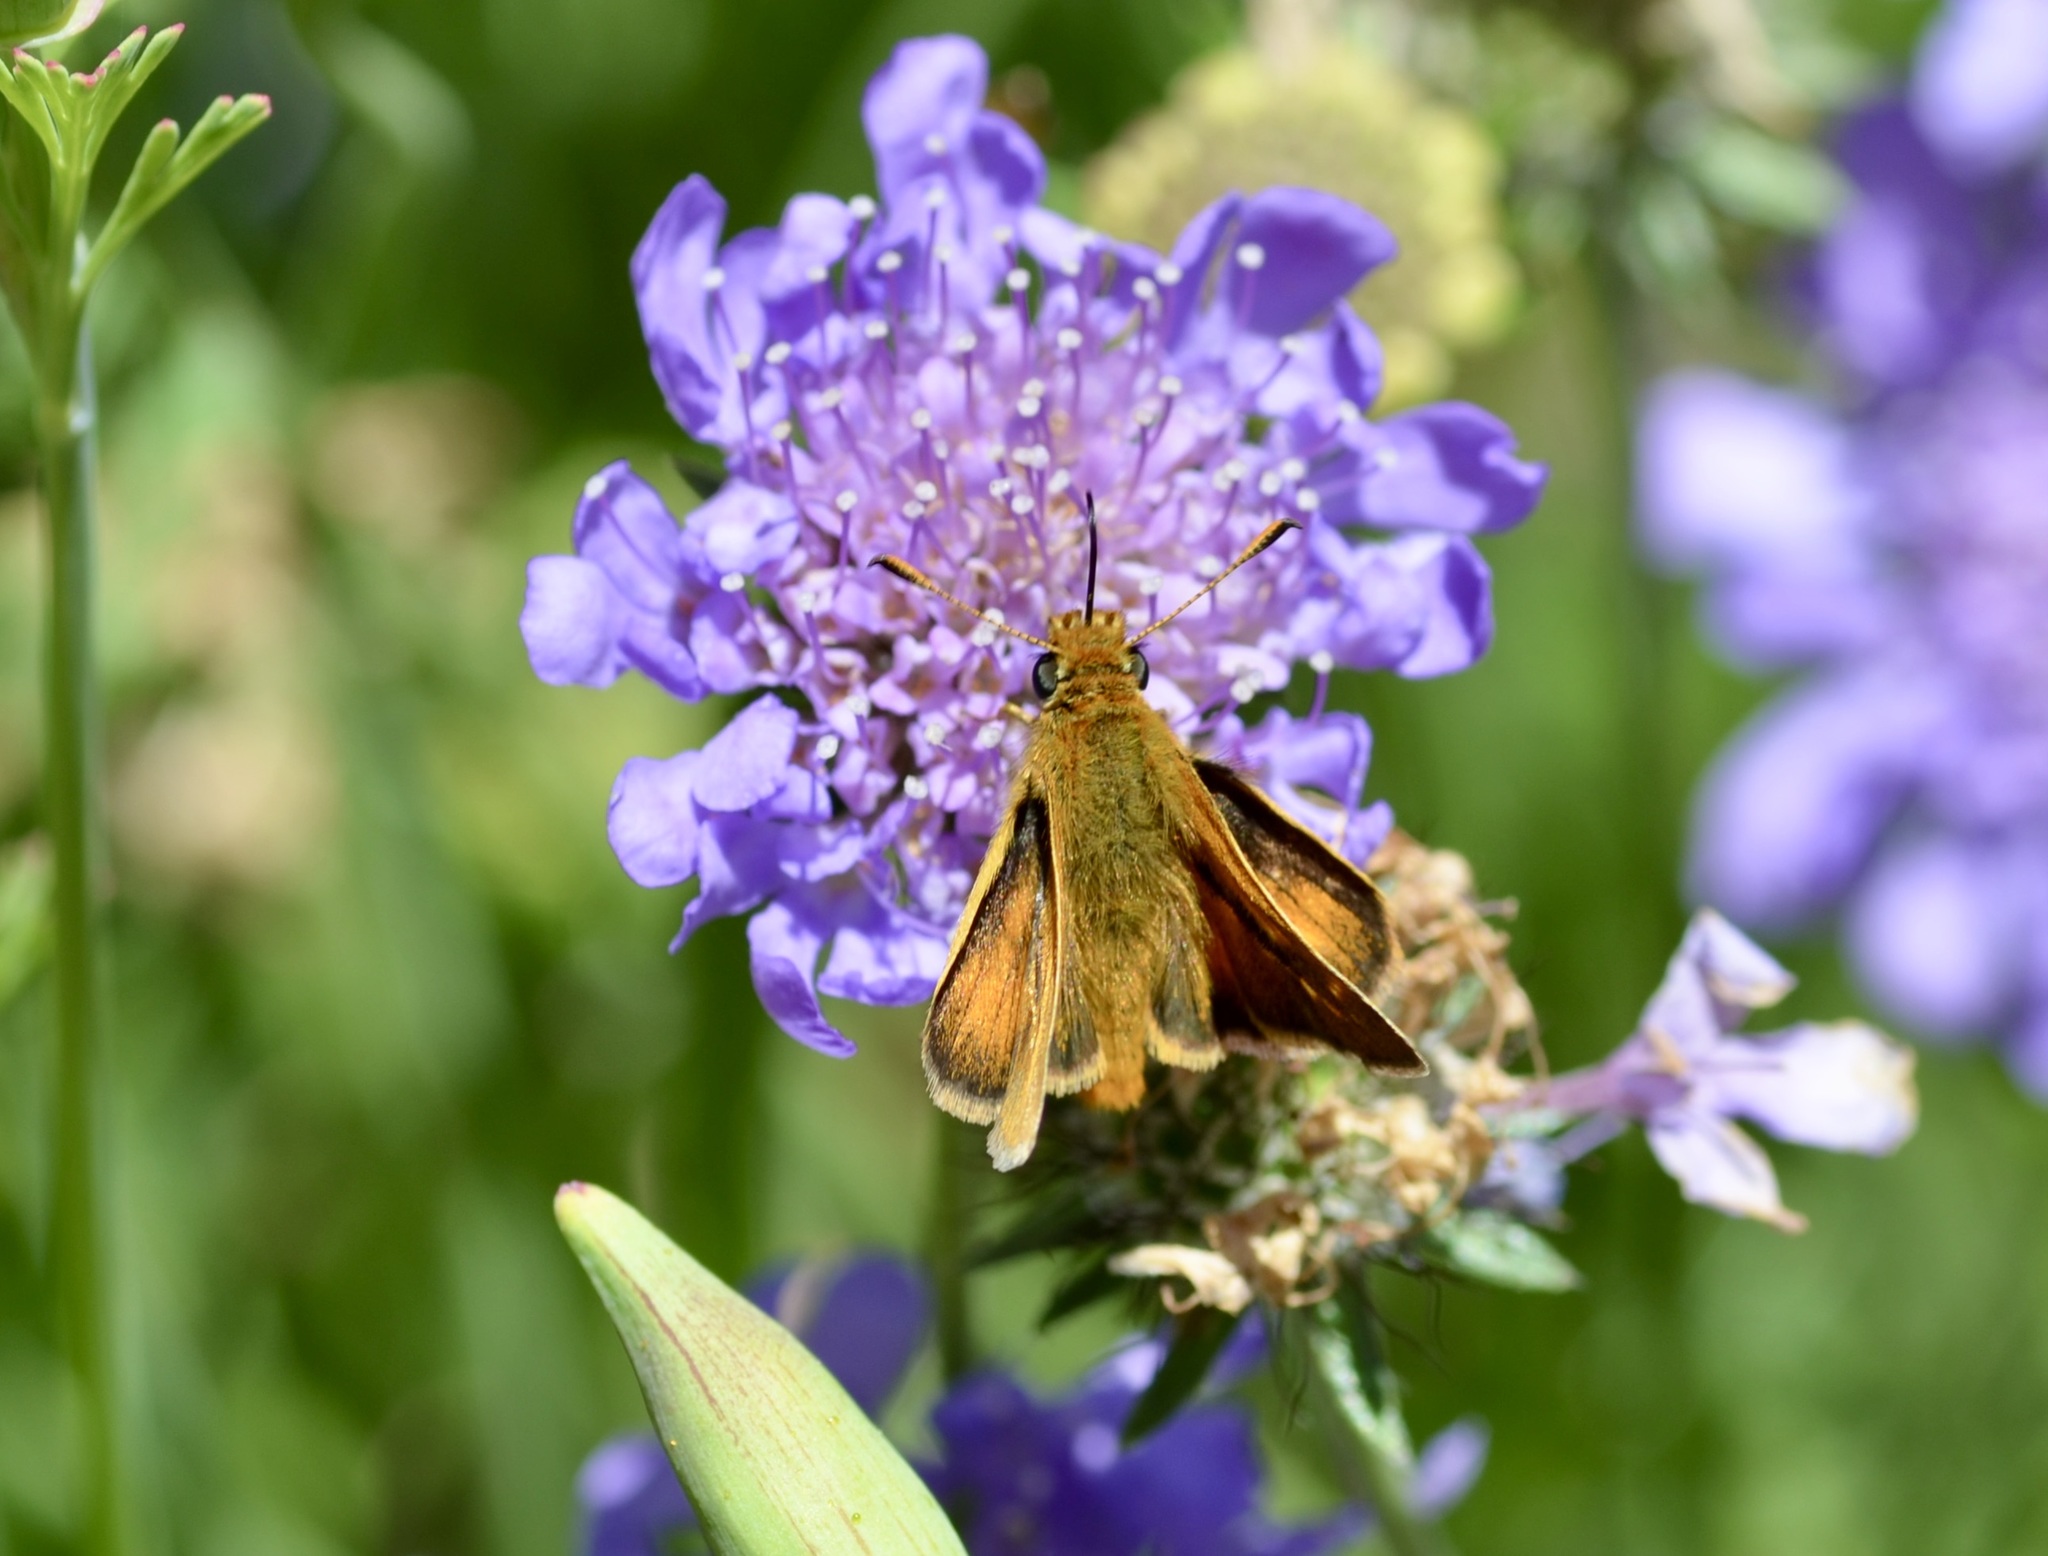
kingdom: Animalia
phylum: Arthropoda
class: Insecta
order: Lepidoptera
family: Hesperiidae
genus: Ochlodes
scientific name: Ochlodes agricola
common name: Rural skipper
